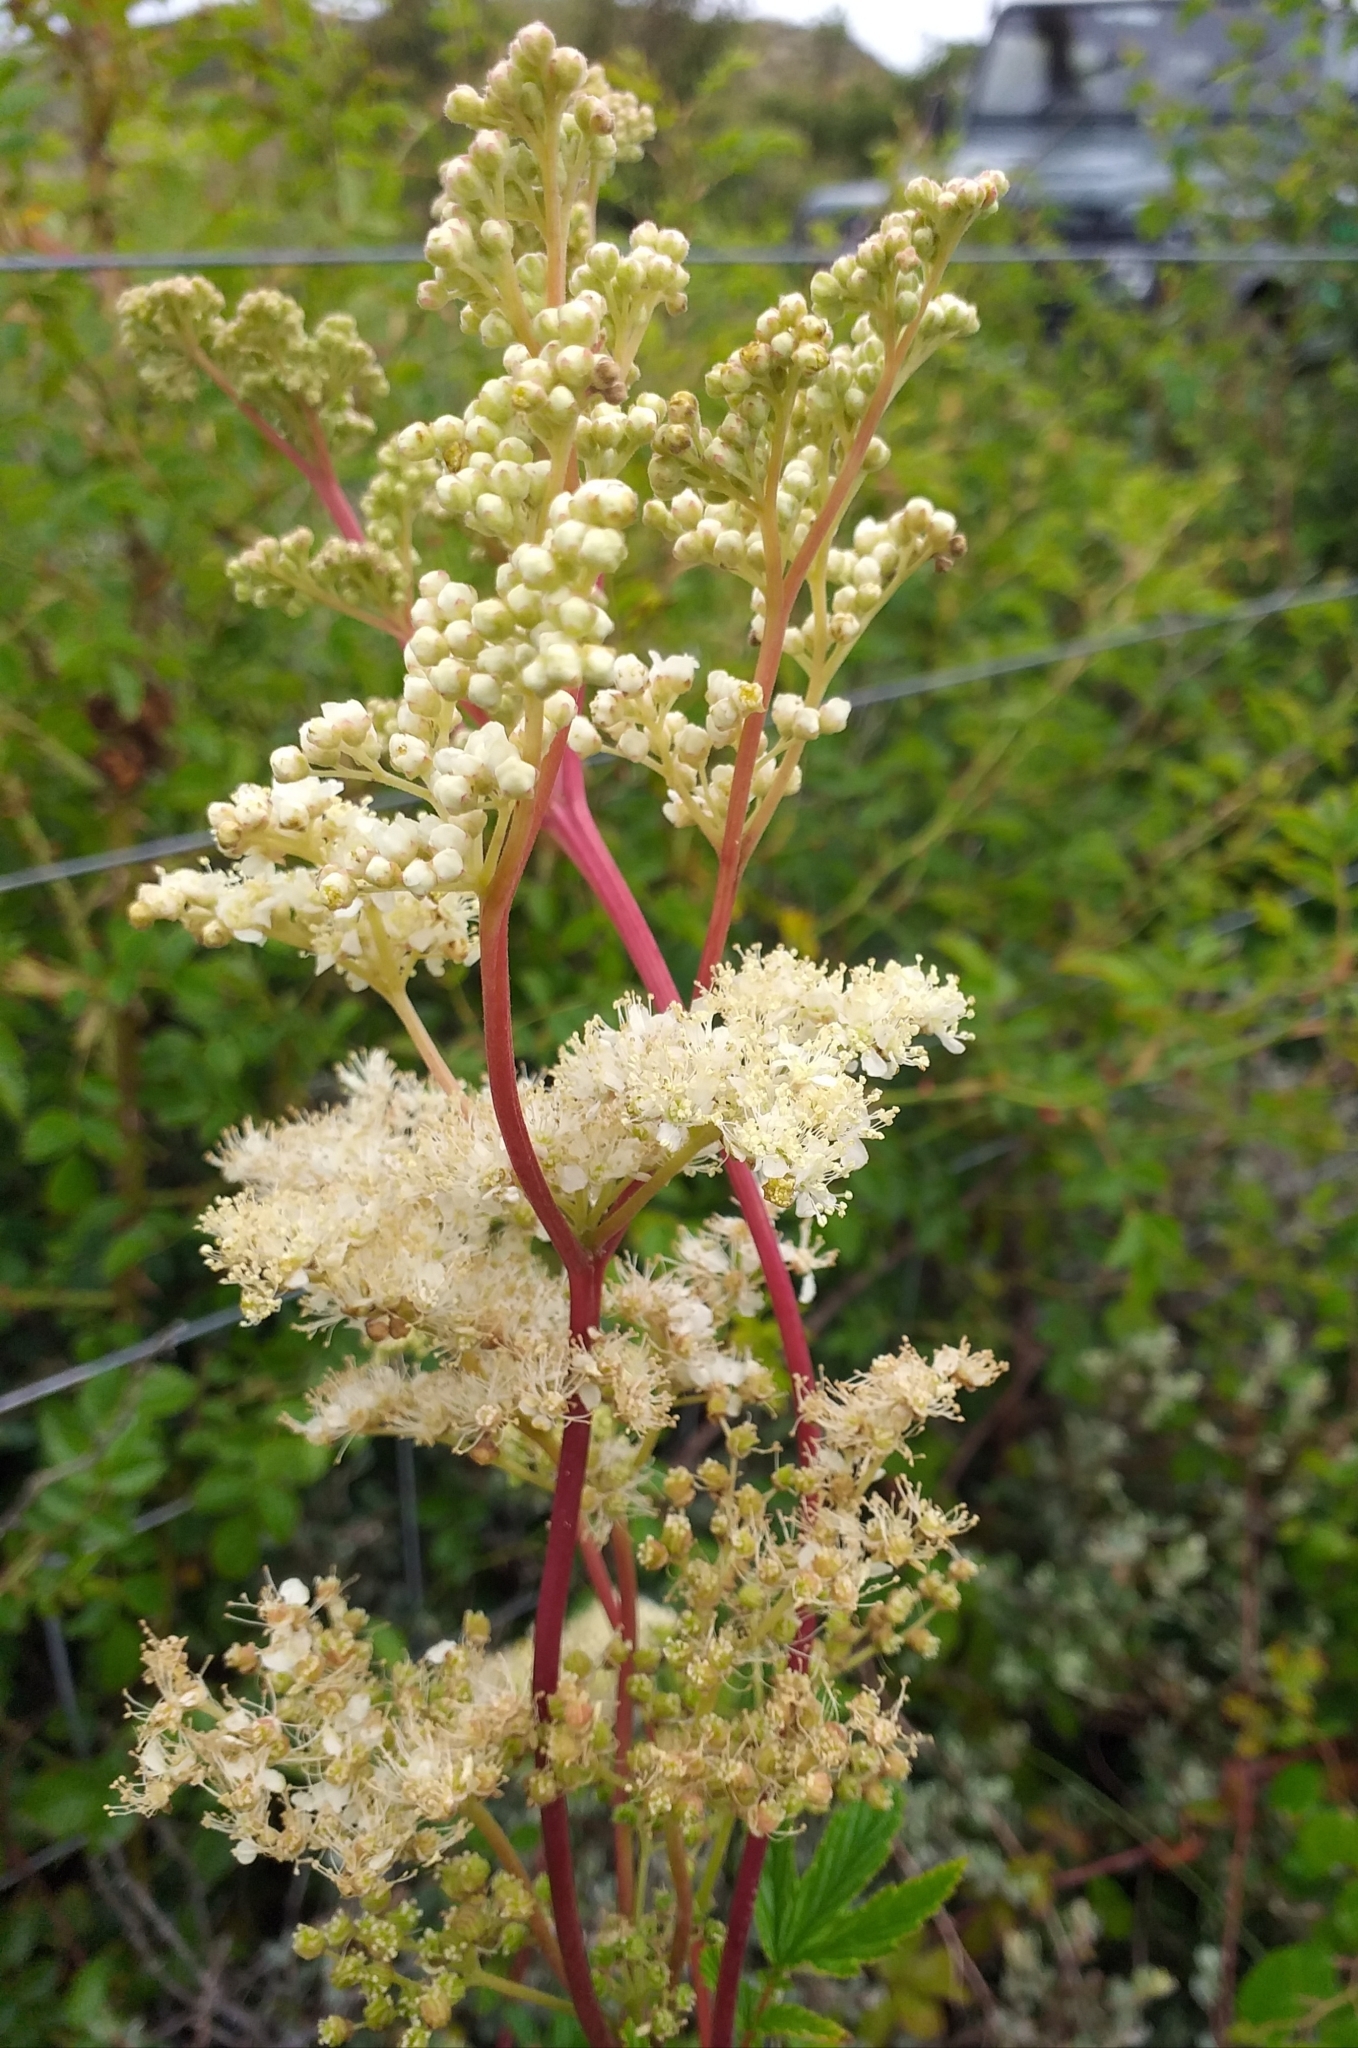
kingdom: Plantae
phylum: Tracheophyta
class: Magnoliopsida
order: Rosales
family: Rosaceae
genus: Filipendula
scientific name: Filipendula ulmaria
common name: Meadowsweet
